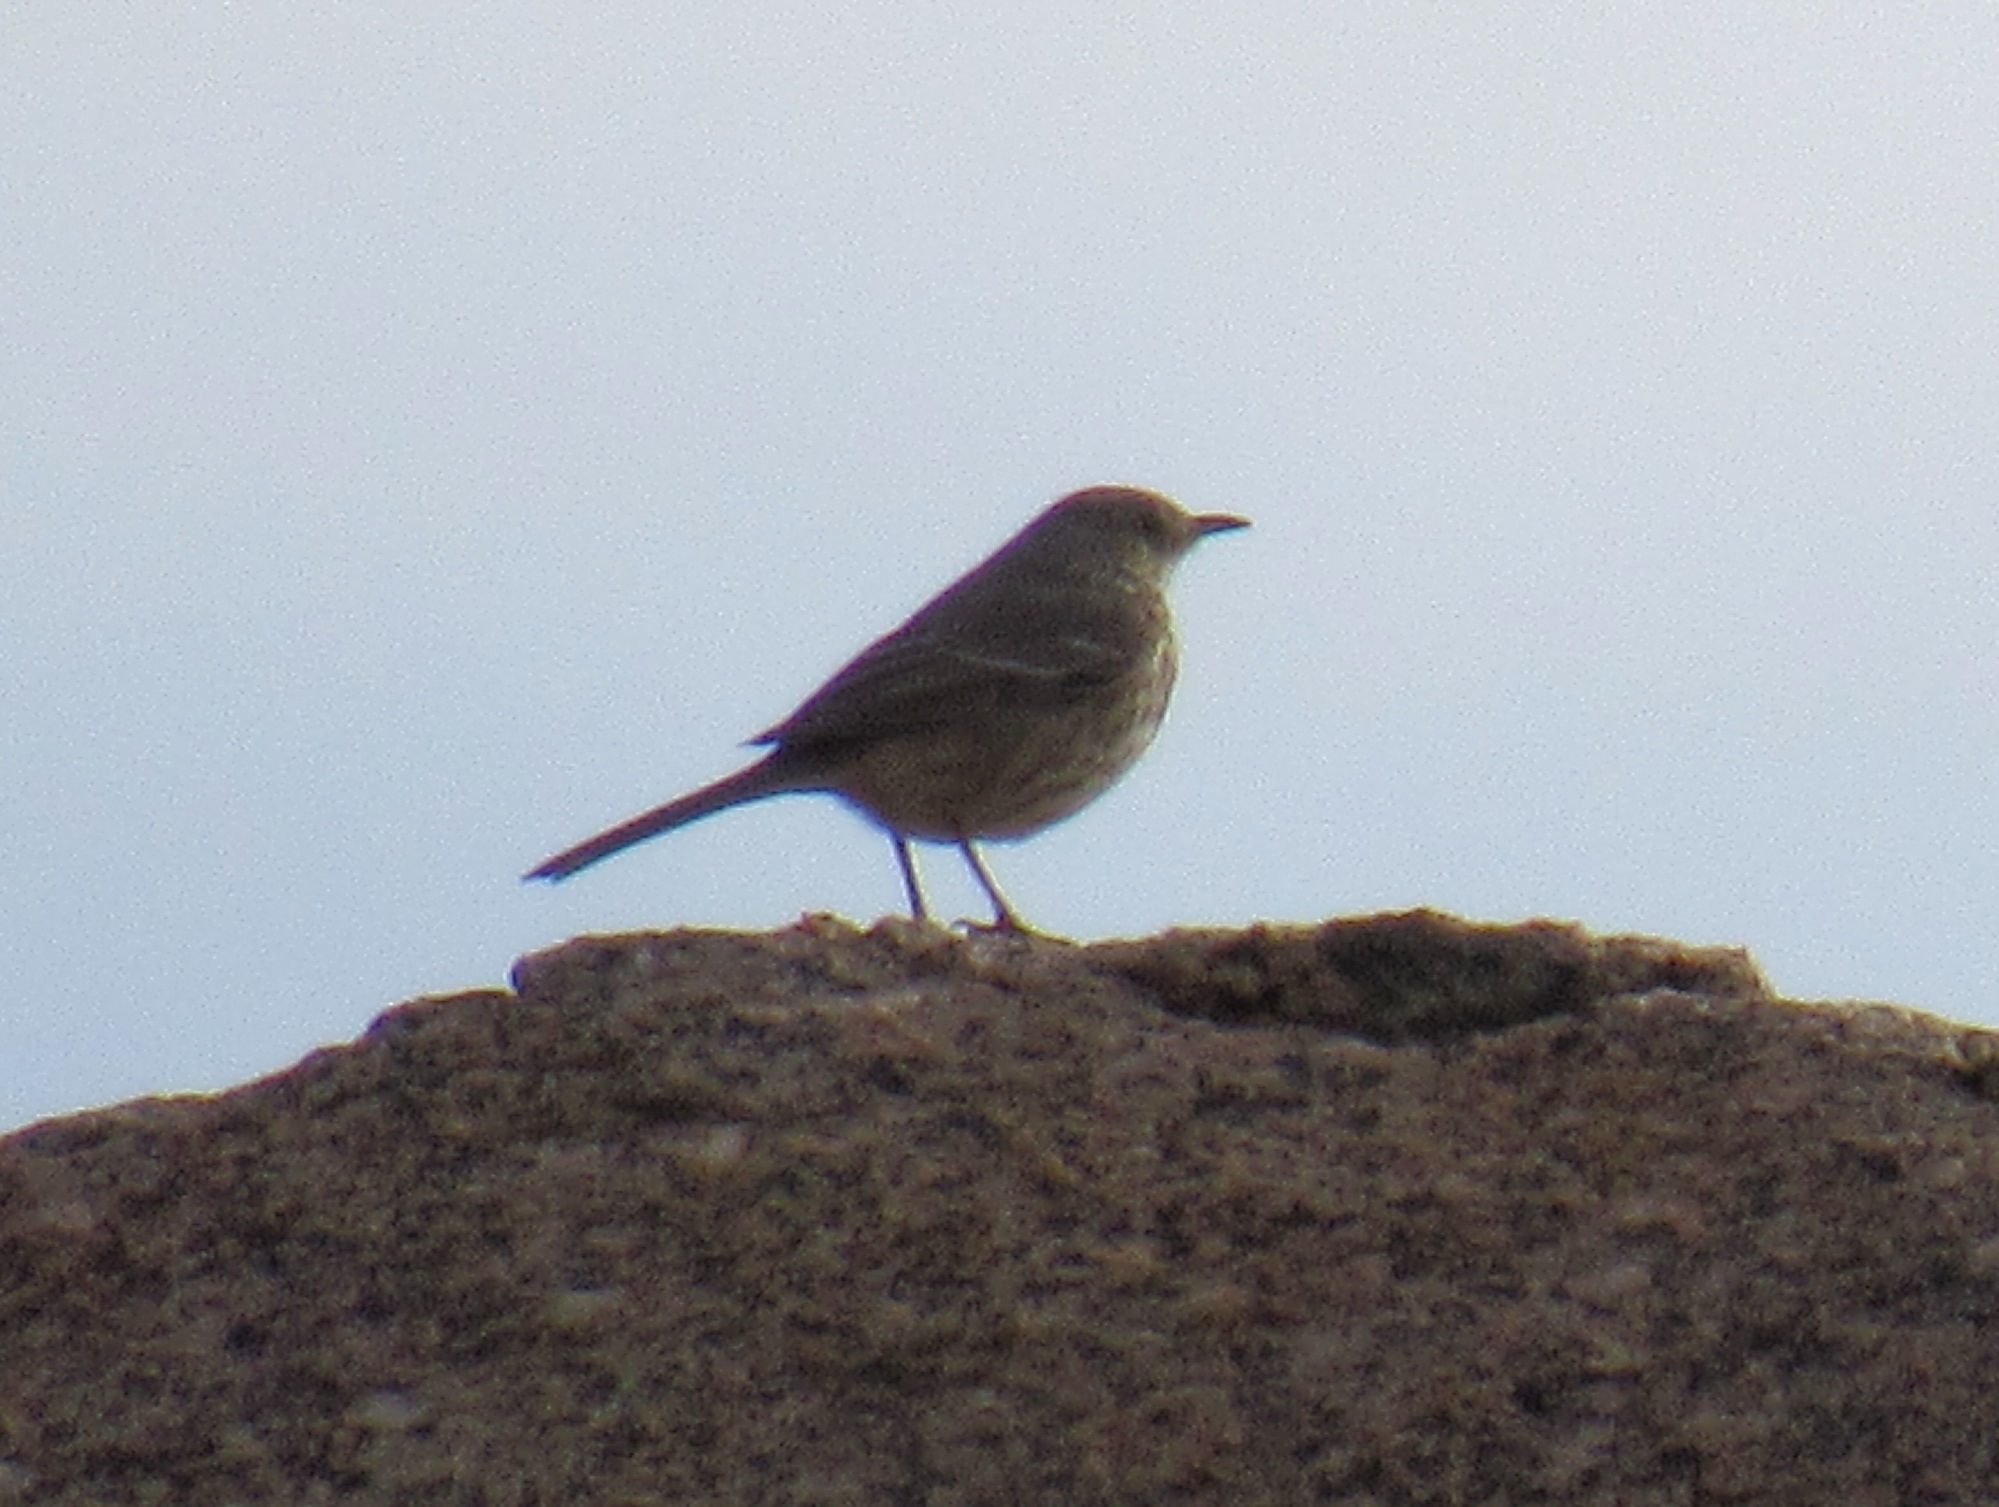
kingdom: Animalia
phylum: Chordata
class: Aves
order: Passeriformes
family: Mimidae
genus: Oreoscoptes
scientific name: Oreoscoptes montanus
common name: Sage thrasher
